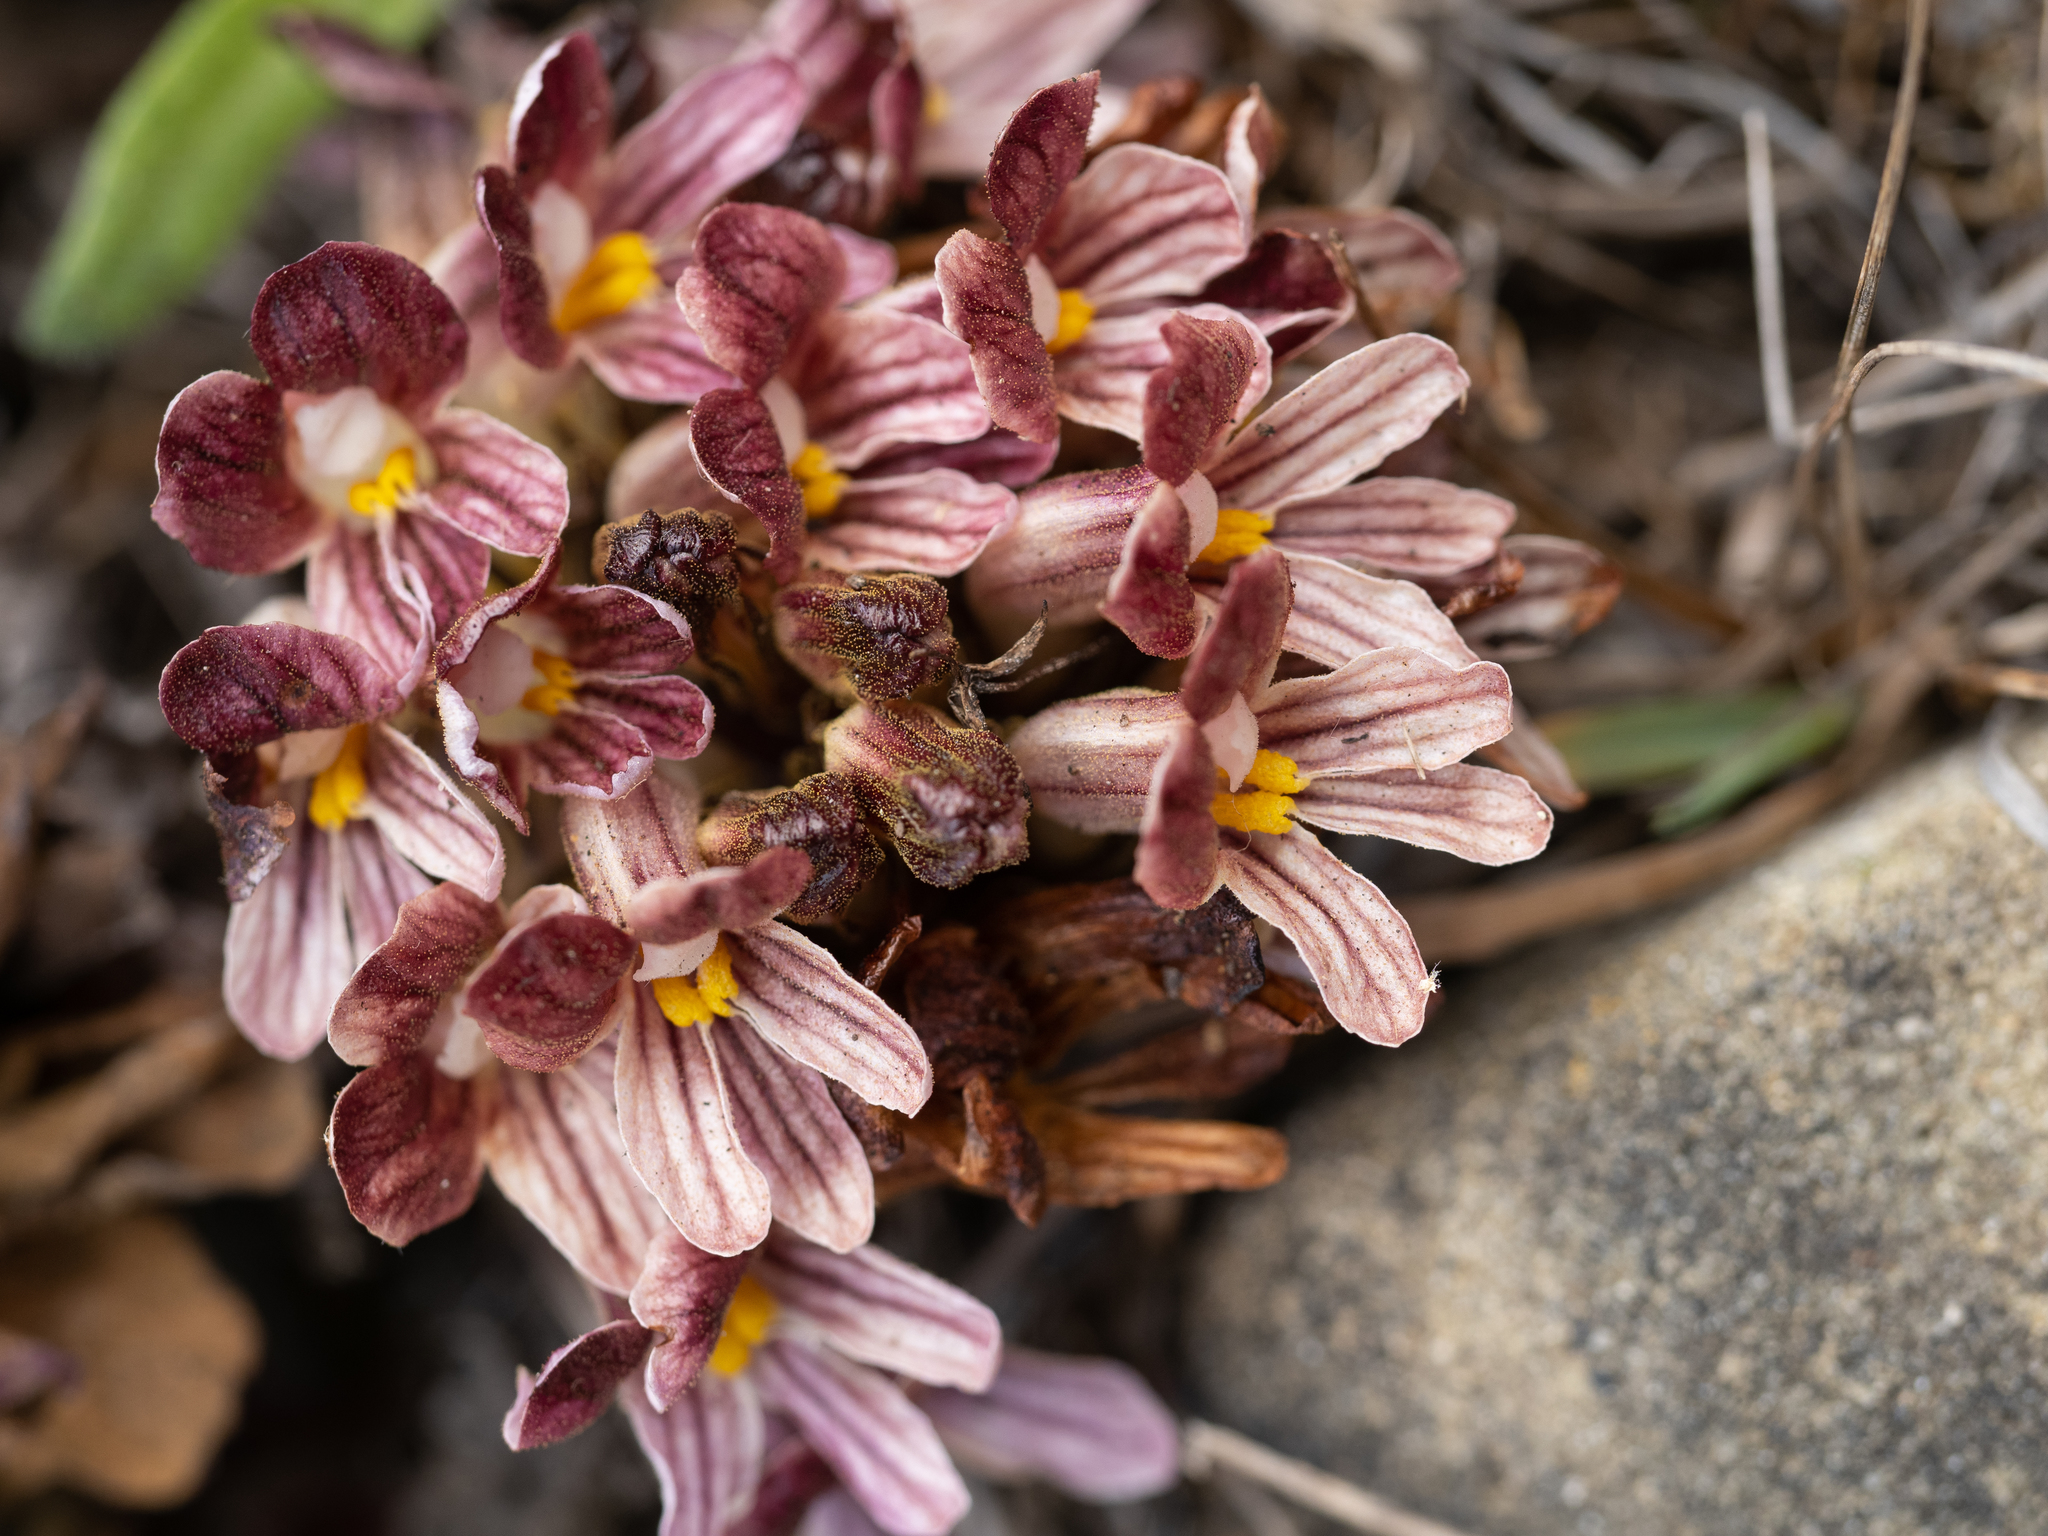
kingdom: Plantae
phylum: Tracheophyta
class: Magnoliopsida
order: Lamiales
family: Orobanchaceae
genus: Aphyllon
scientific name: Aphyllon californicum
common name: California broomrape
